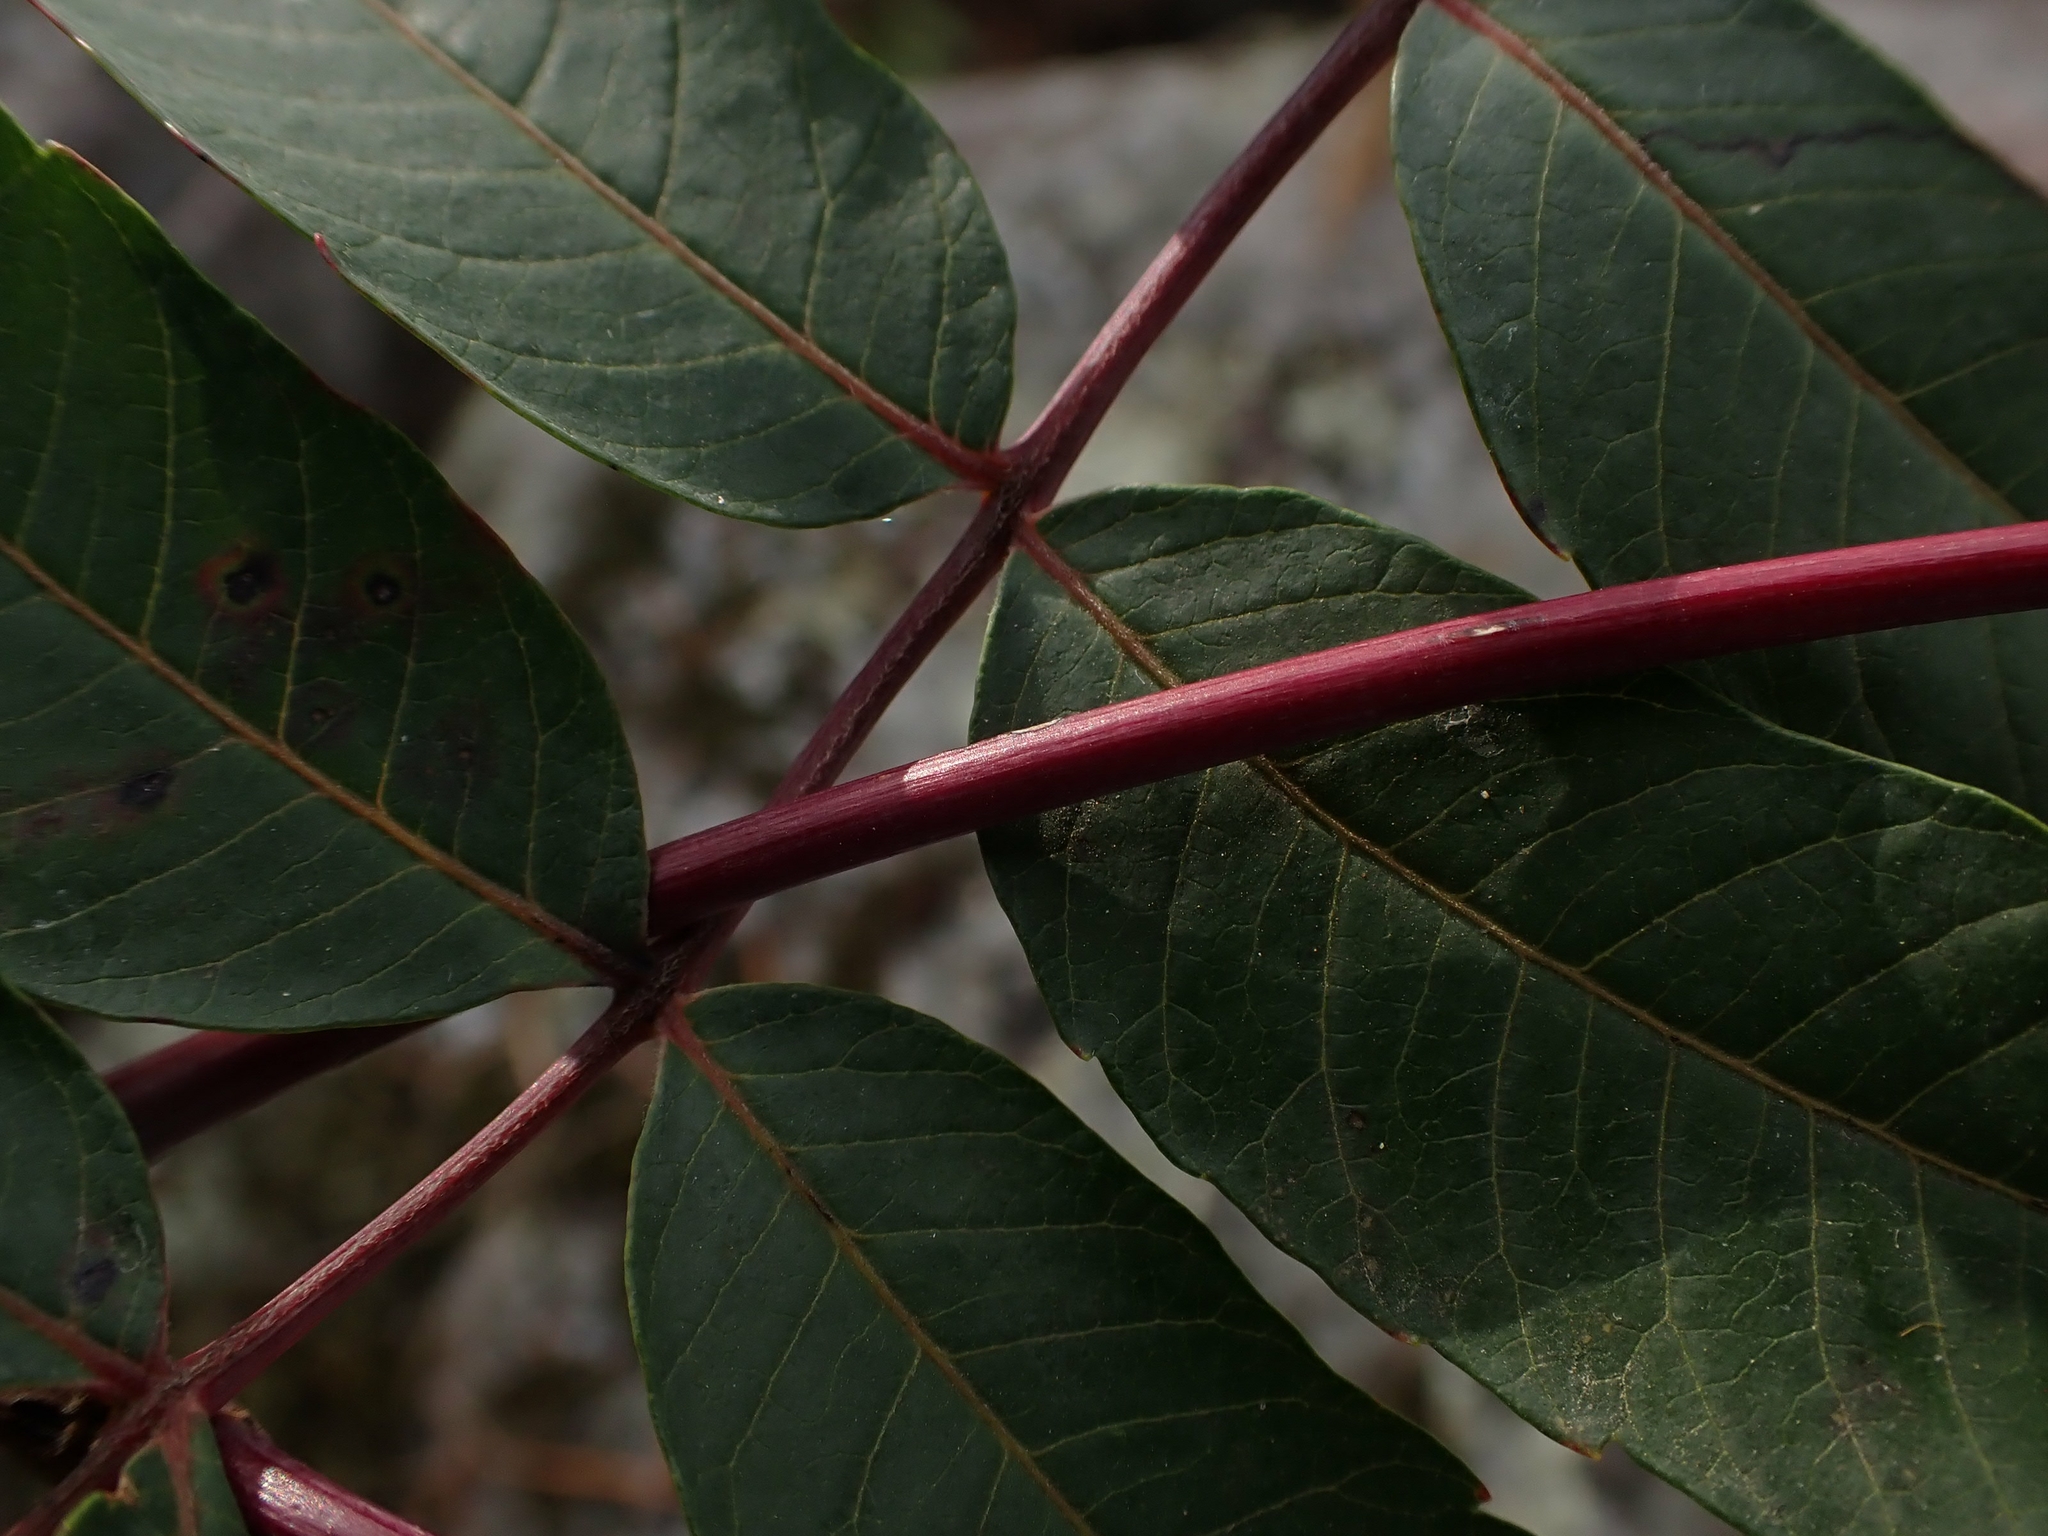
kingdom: Plantae
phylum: Tracheophyta
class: Magnoliopsida
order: Sapindales
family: Anacardiaceae
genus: Rhus
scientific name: Rhus glabra
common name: Scarlet sumac
